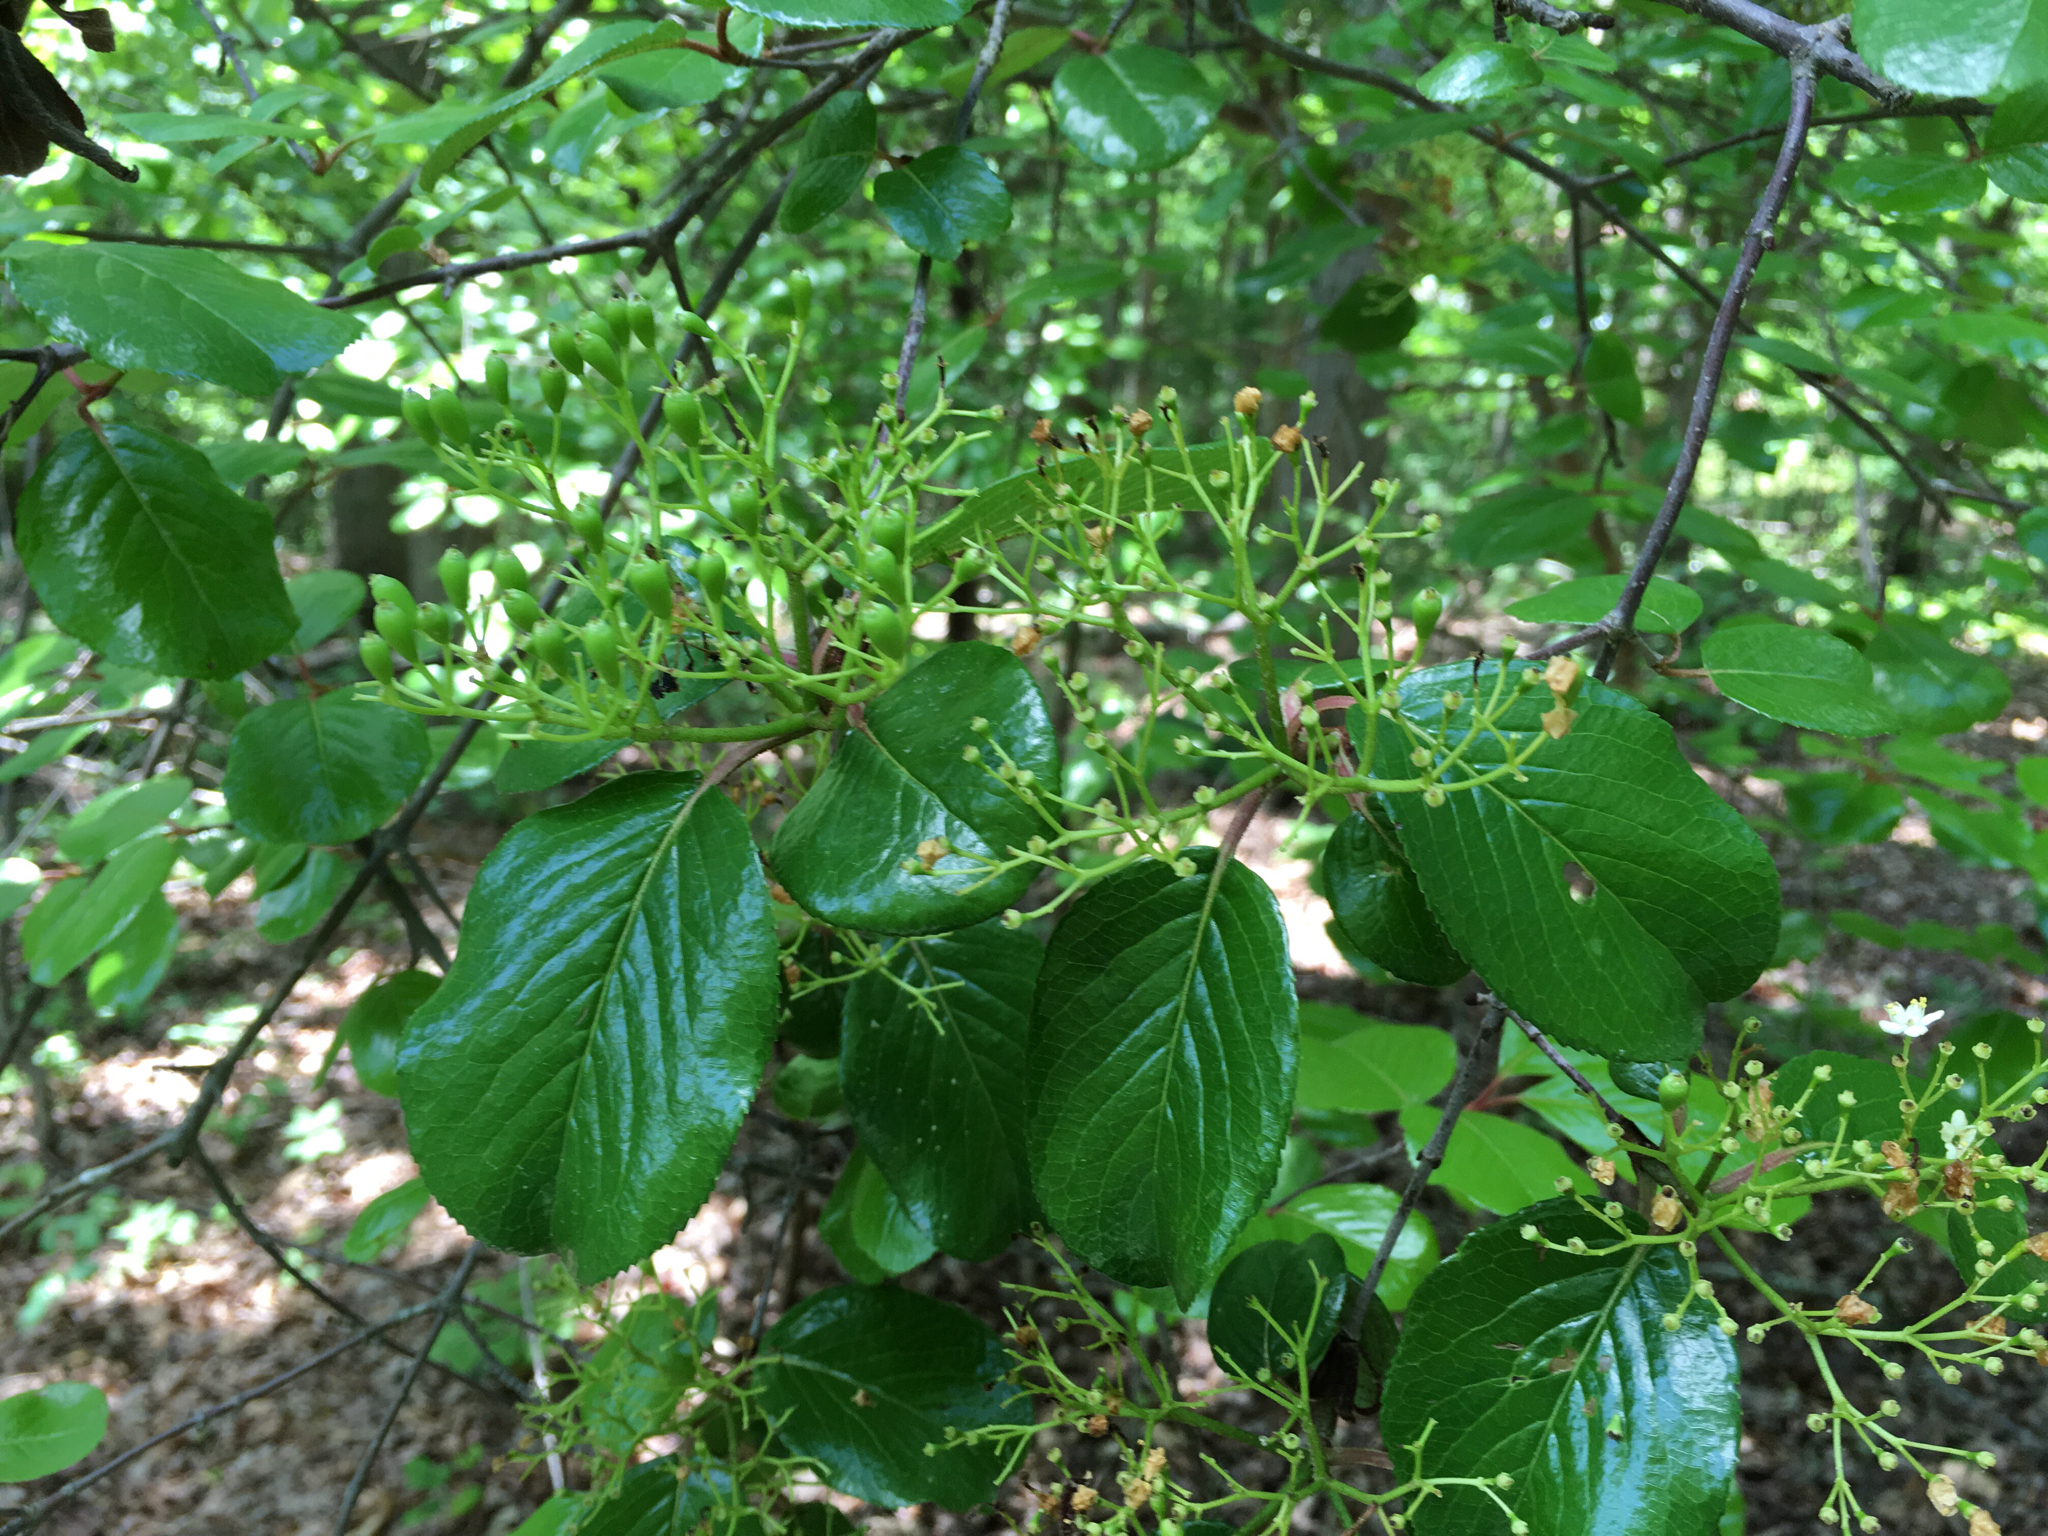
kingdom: Plantae
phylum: Tracheophyta
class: Magnoliopsida
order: Dipsacales
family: Viburnaceae
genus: Viburnum
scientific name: Viburnum rufidulum
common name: Blue haw
